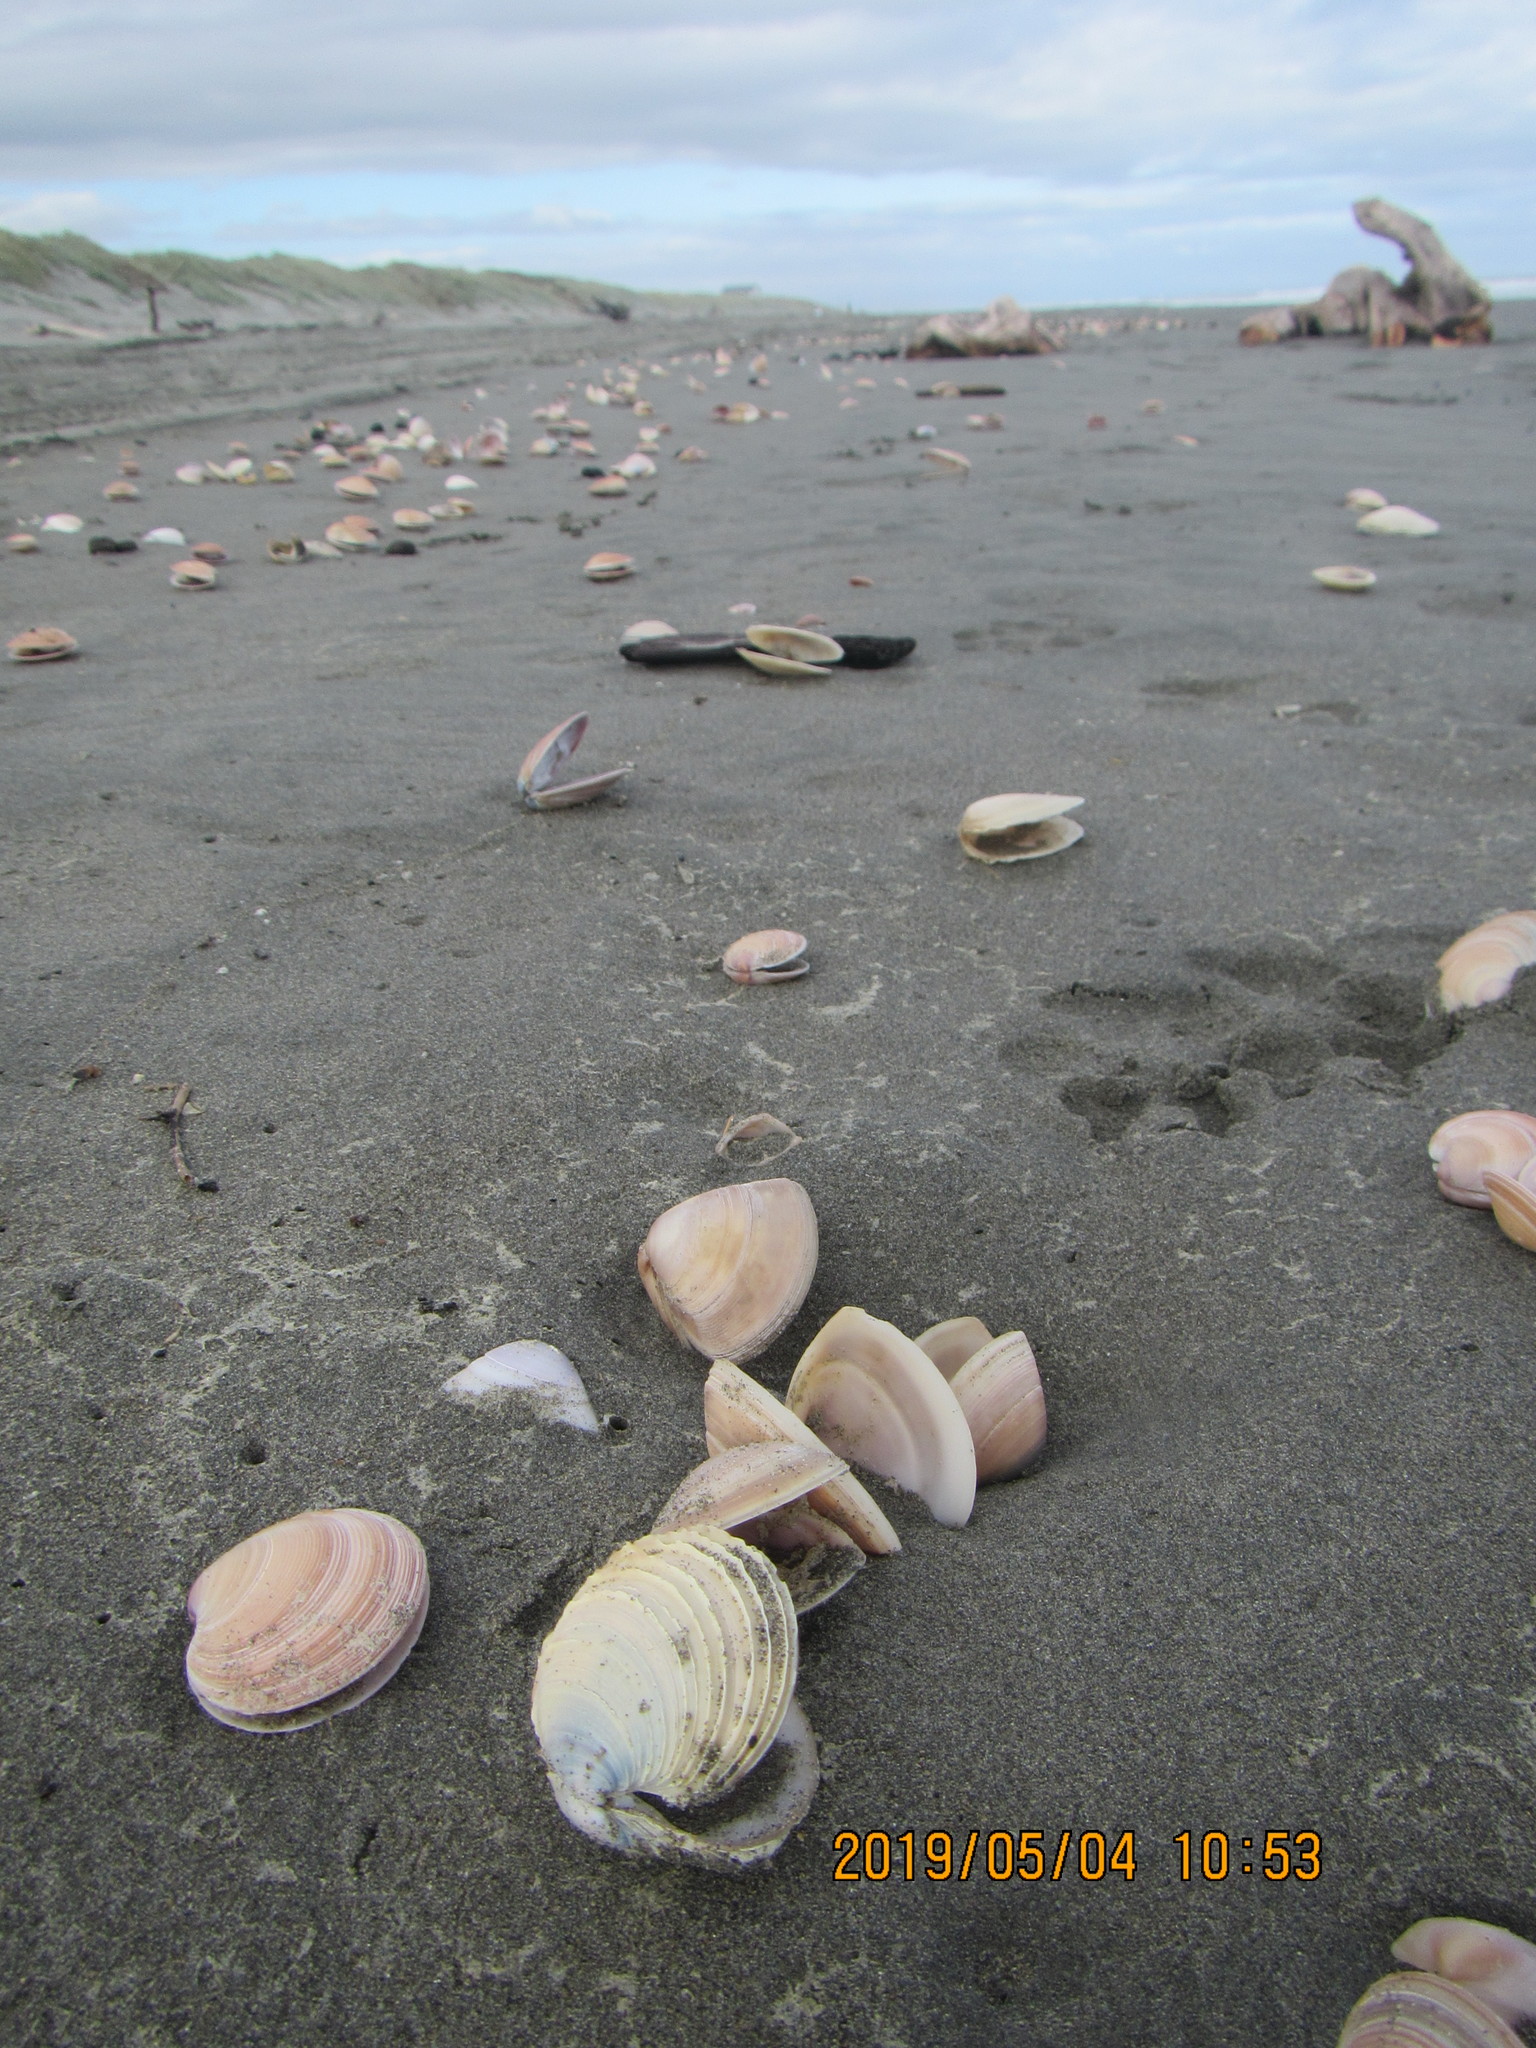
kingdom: Animalia
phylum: Mollusca
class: Bivalvia
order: Venerida
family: Veneridae
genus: Bassina
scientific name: Bassina yatei
